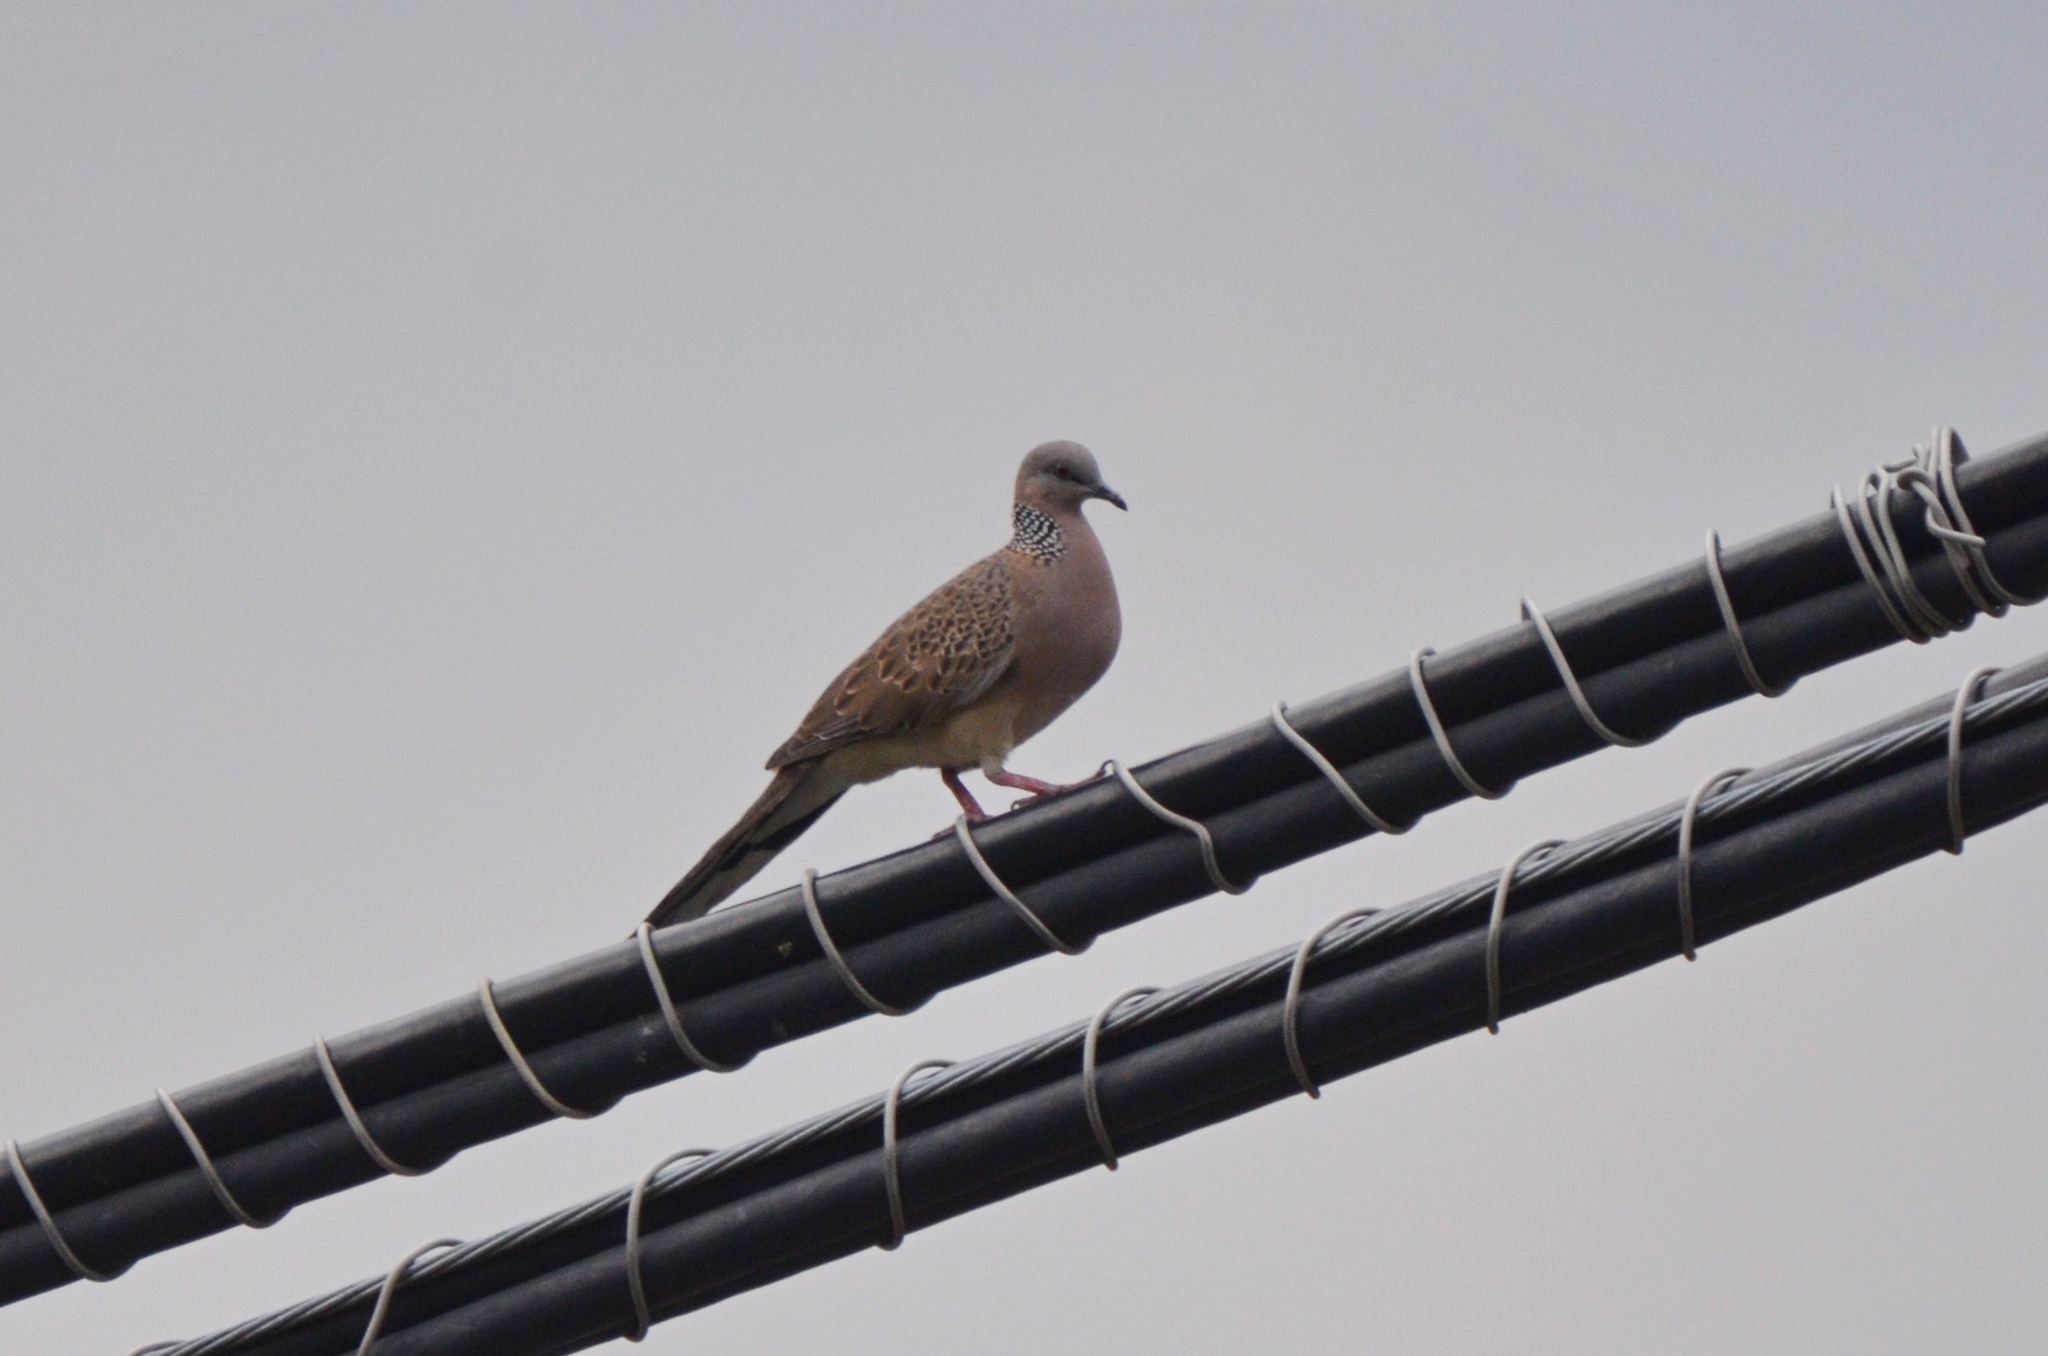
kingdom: Animalia
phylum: Chordata
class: Aves
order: Columbiformes
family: Columbidae
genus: Spilopelia
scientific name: Spilopelia chinensis
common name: Spotted dove
